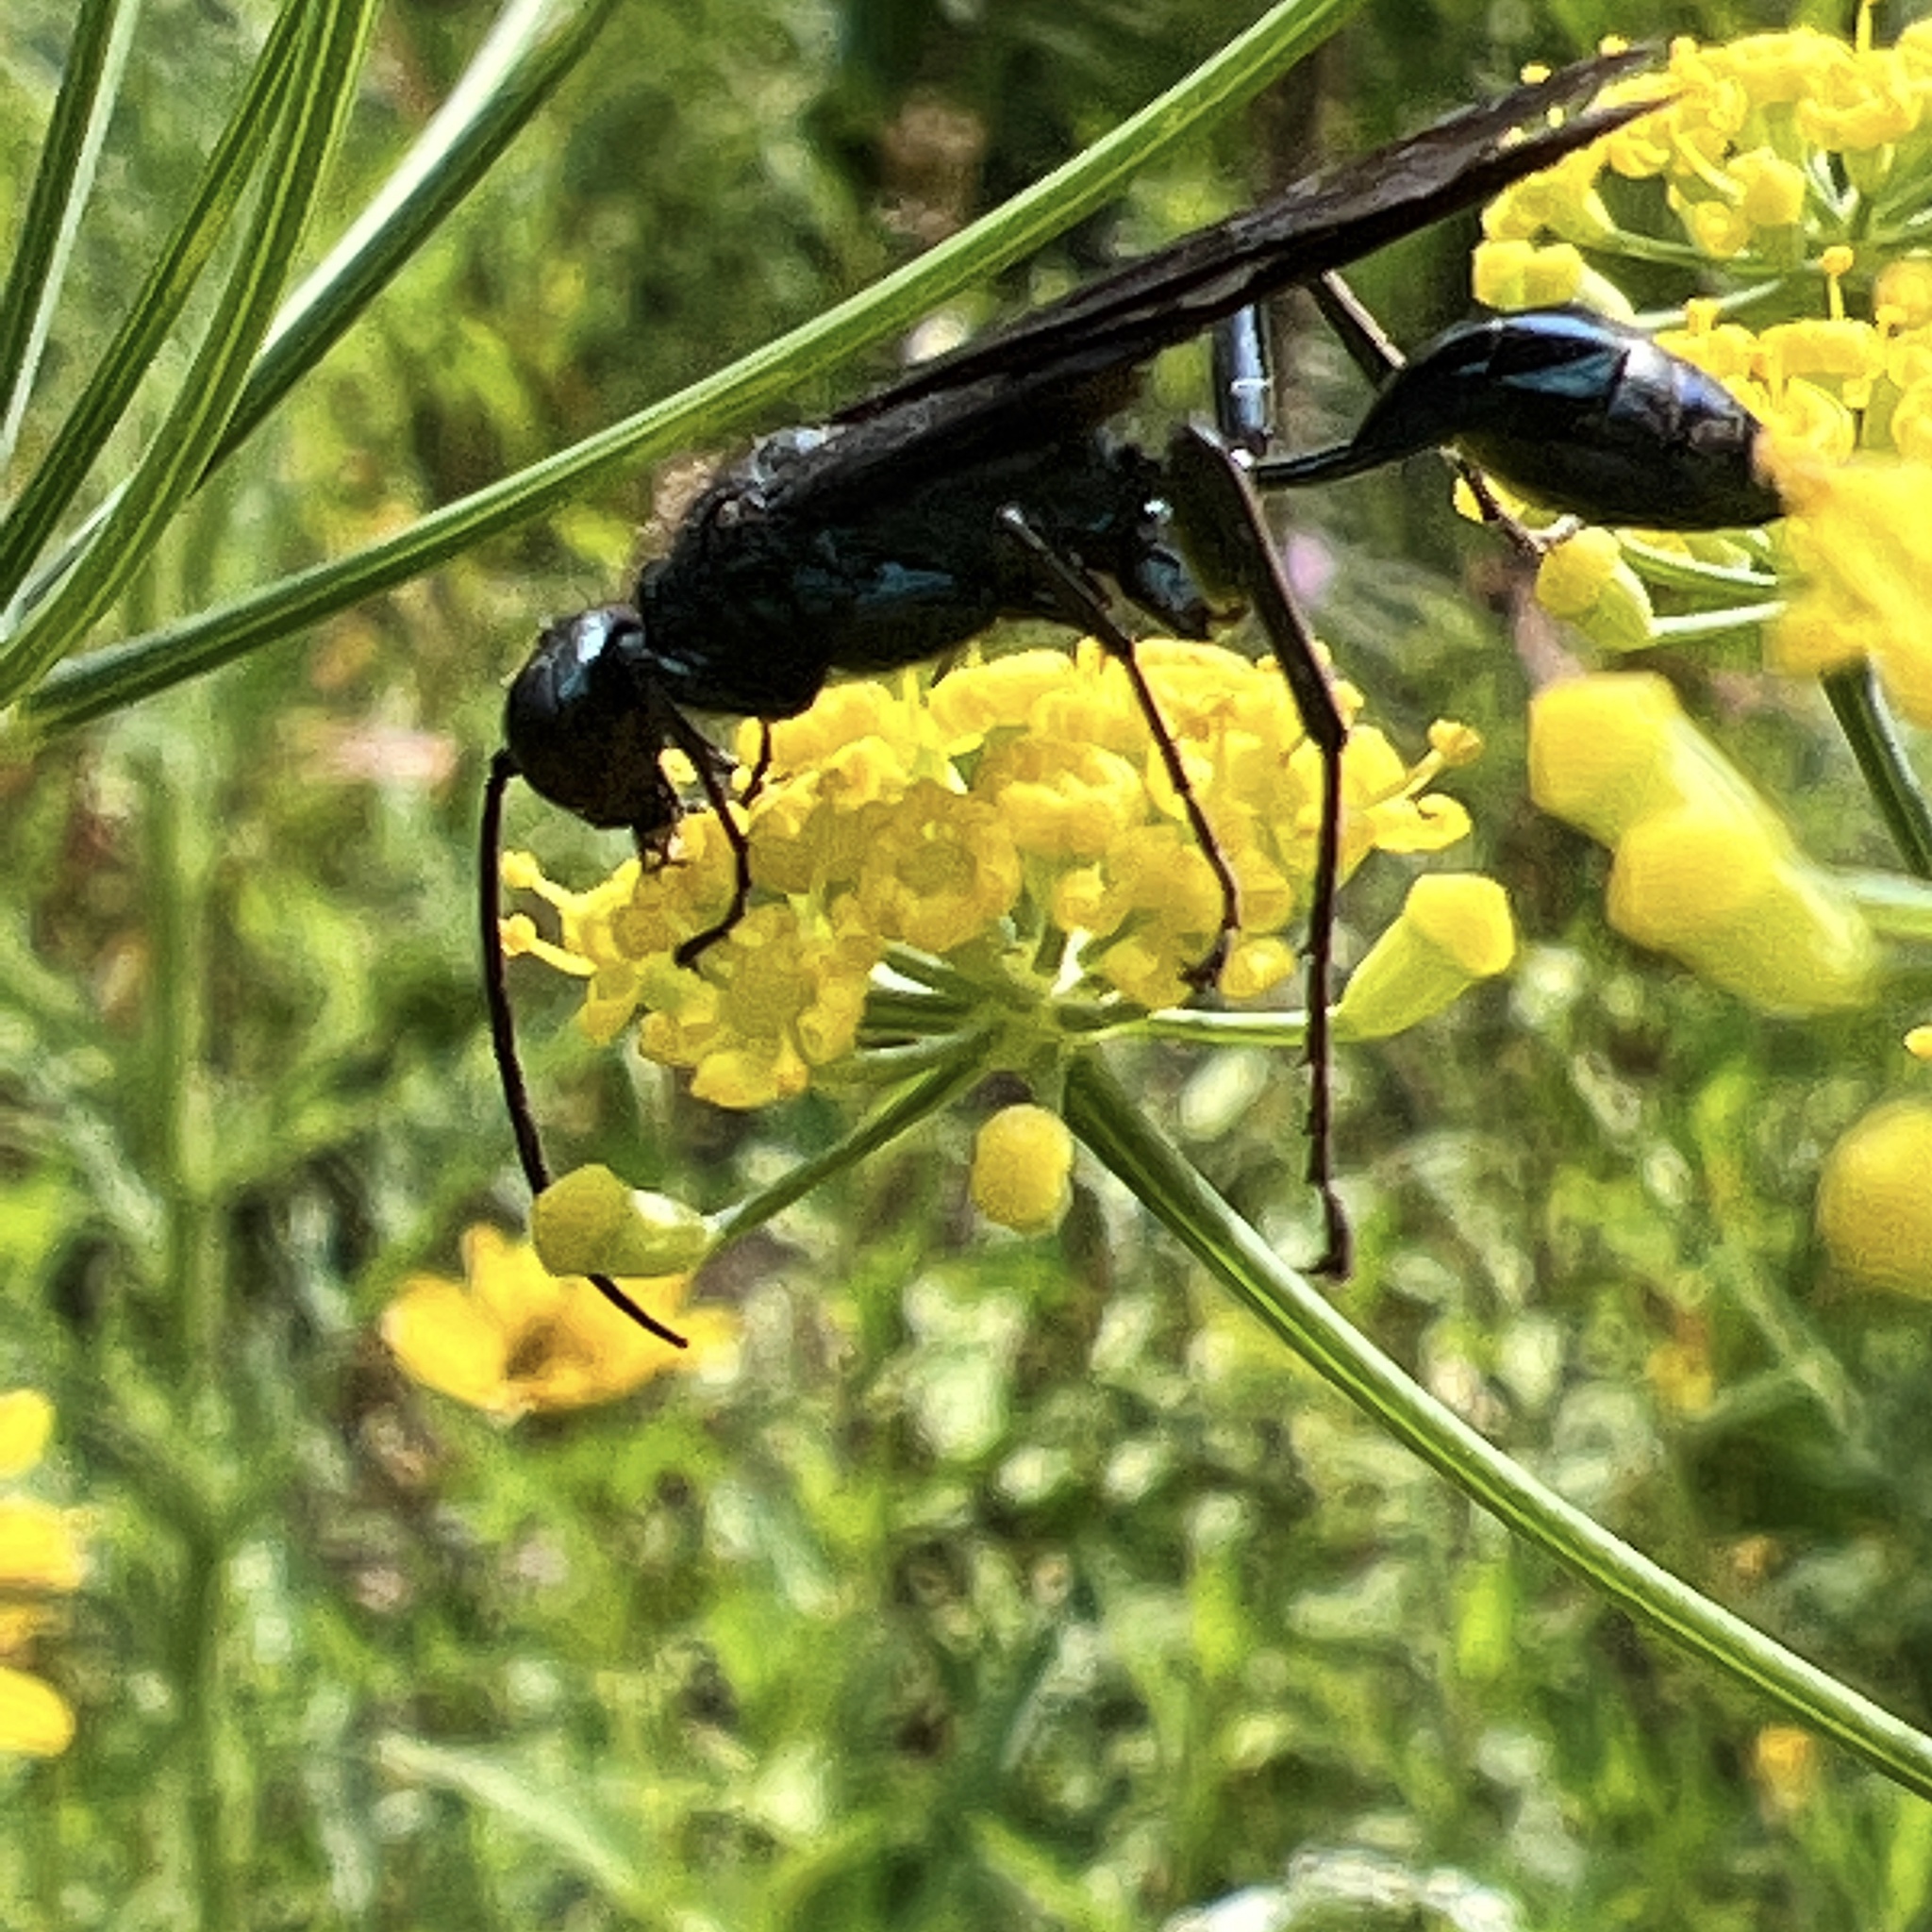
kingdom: Animalia
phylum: Arthropoda
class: Insecta
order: Hymenoptera
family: Sphecidae
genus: Chalybion
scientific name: Chalybion californicum
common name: Mud dauber
